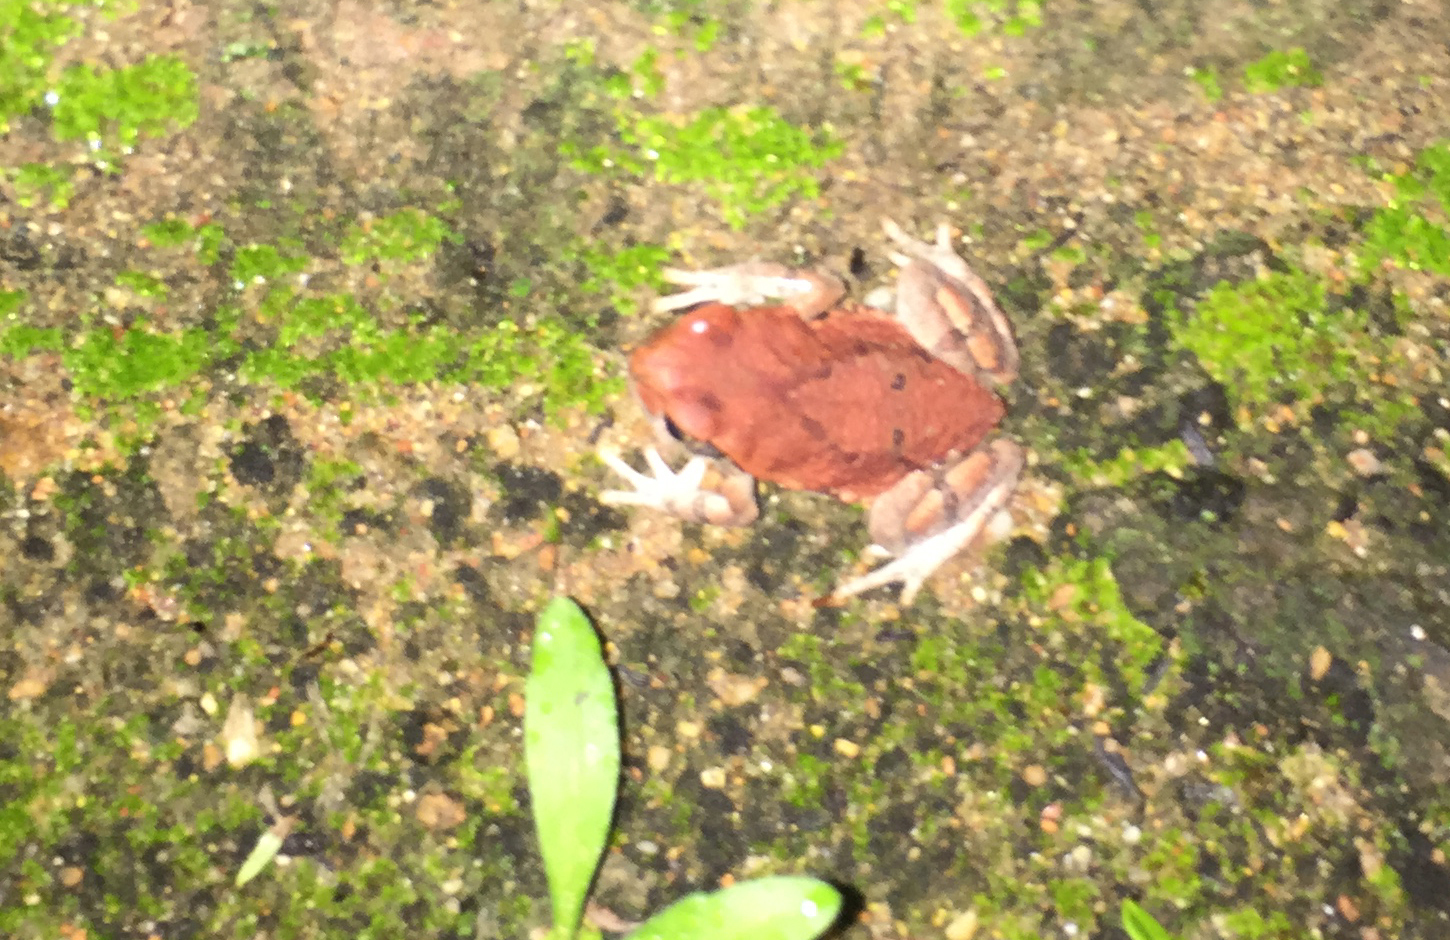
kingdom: Animalia
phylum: Chordata
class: Amphibia
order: Anura
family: Bufonidae
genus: Schismaderma
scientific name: Schismaderma carens
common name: African split-skin toad
